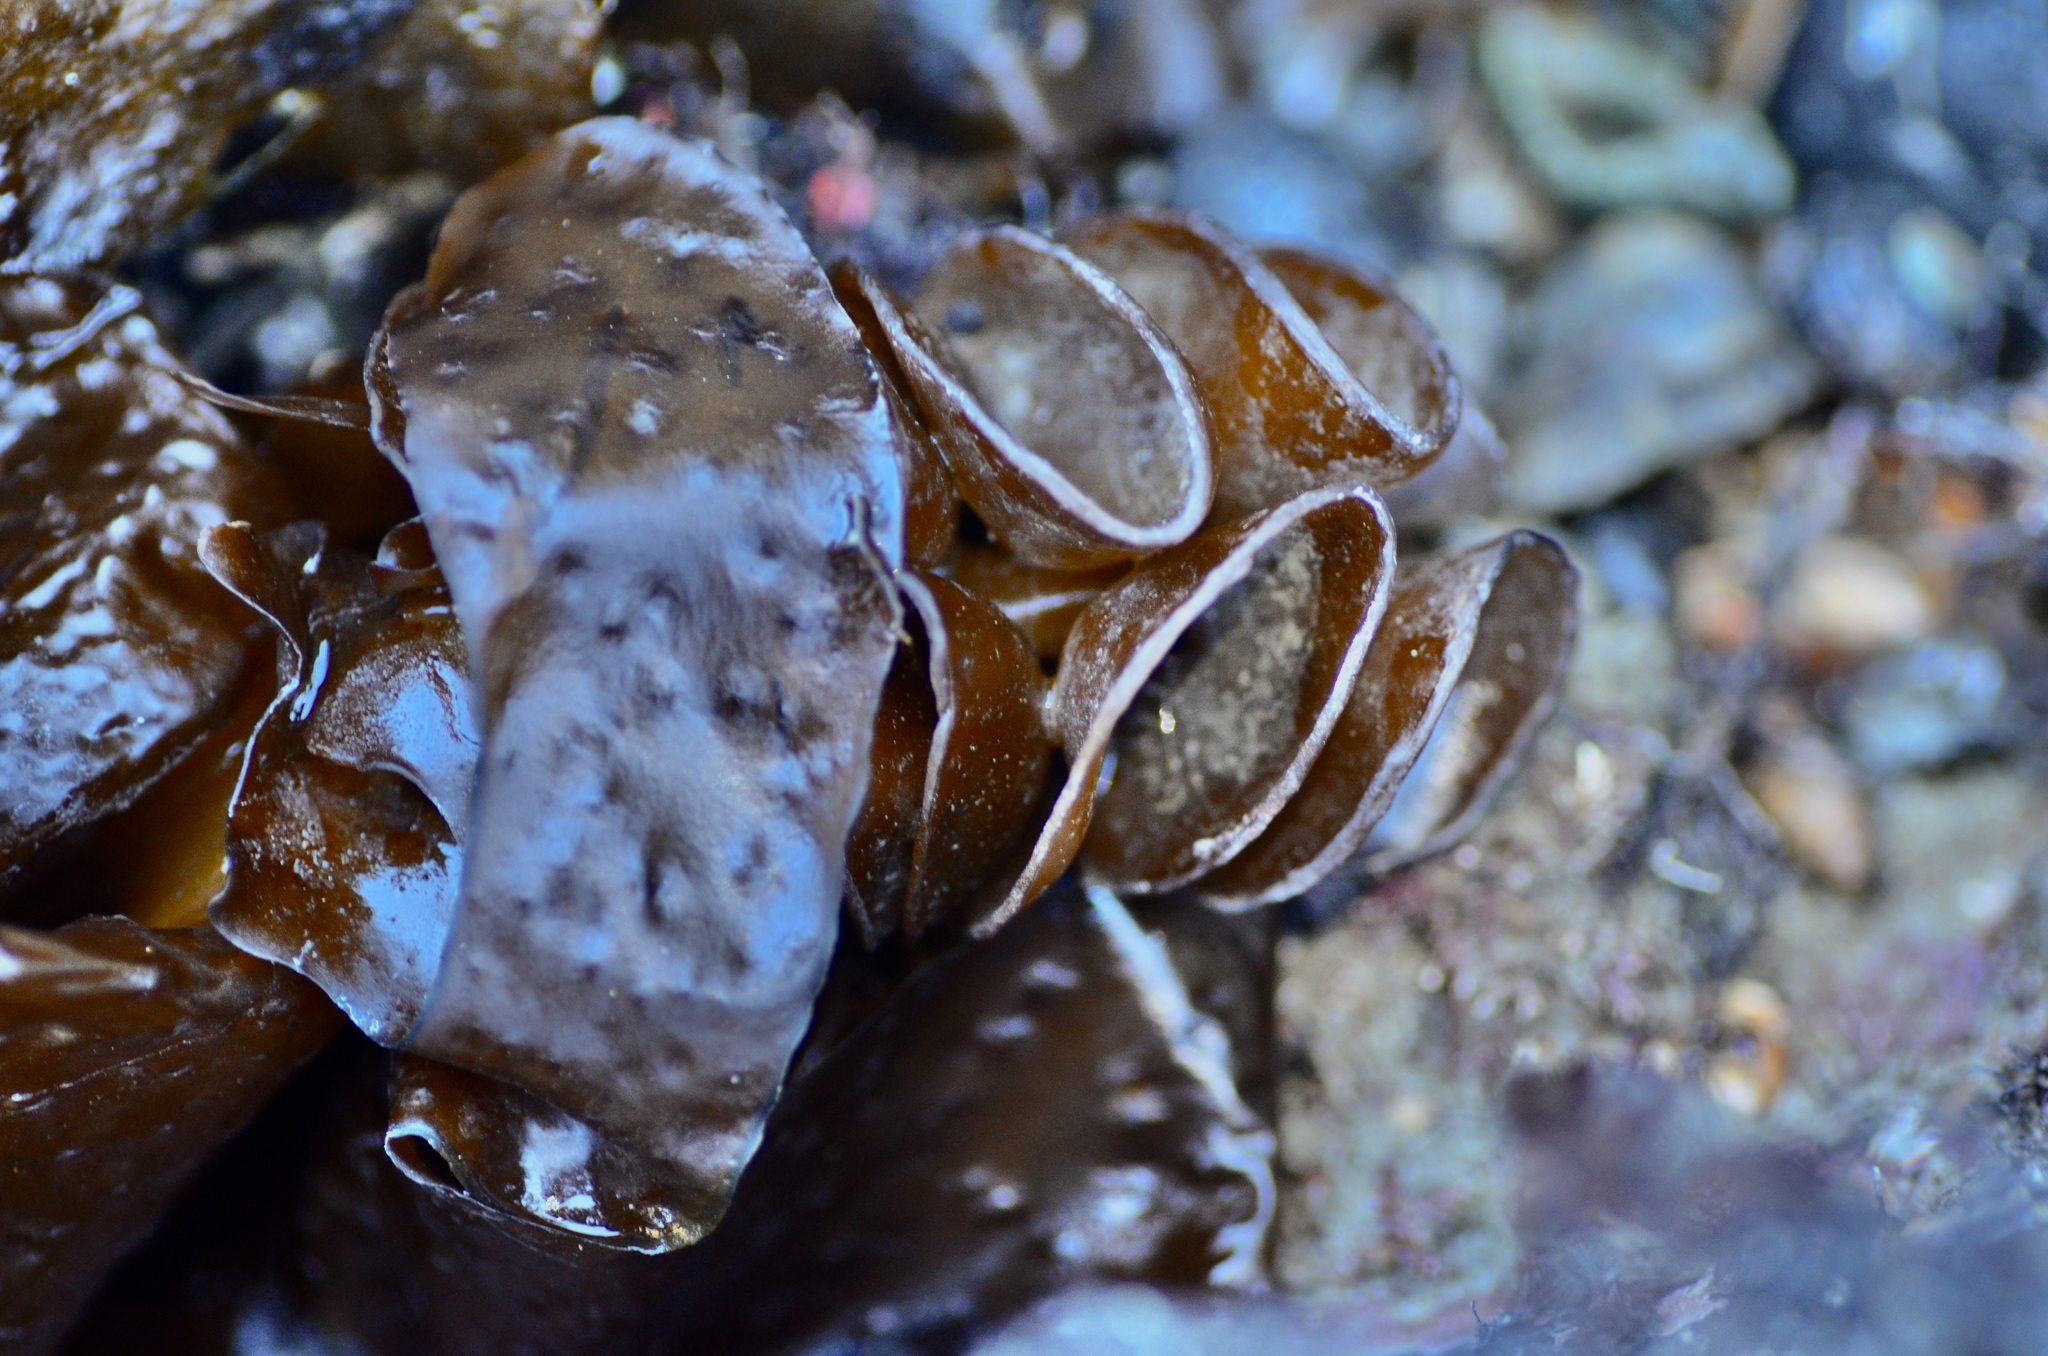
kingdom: Chromista
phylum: Ochrophyta
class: Phaeophyceae
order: Laminariales
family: Alariaceae
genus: Undaria
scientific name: Undaria pinnatifida
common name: Asian kelp
